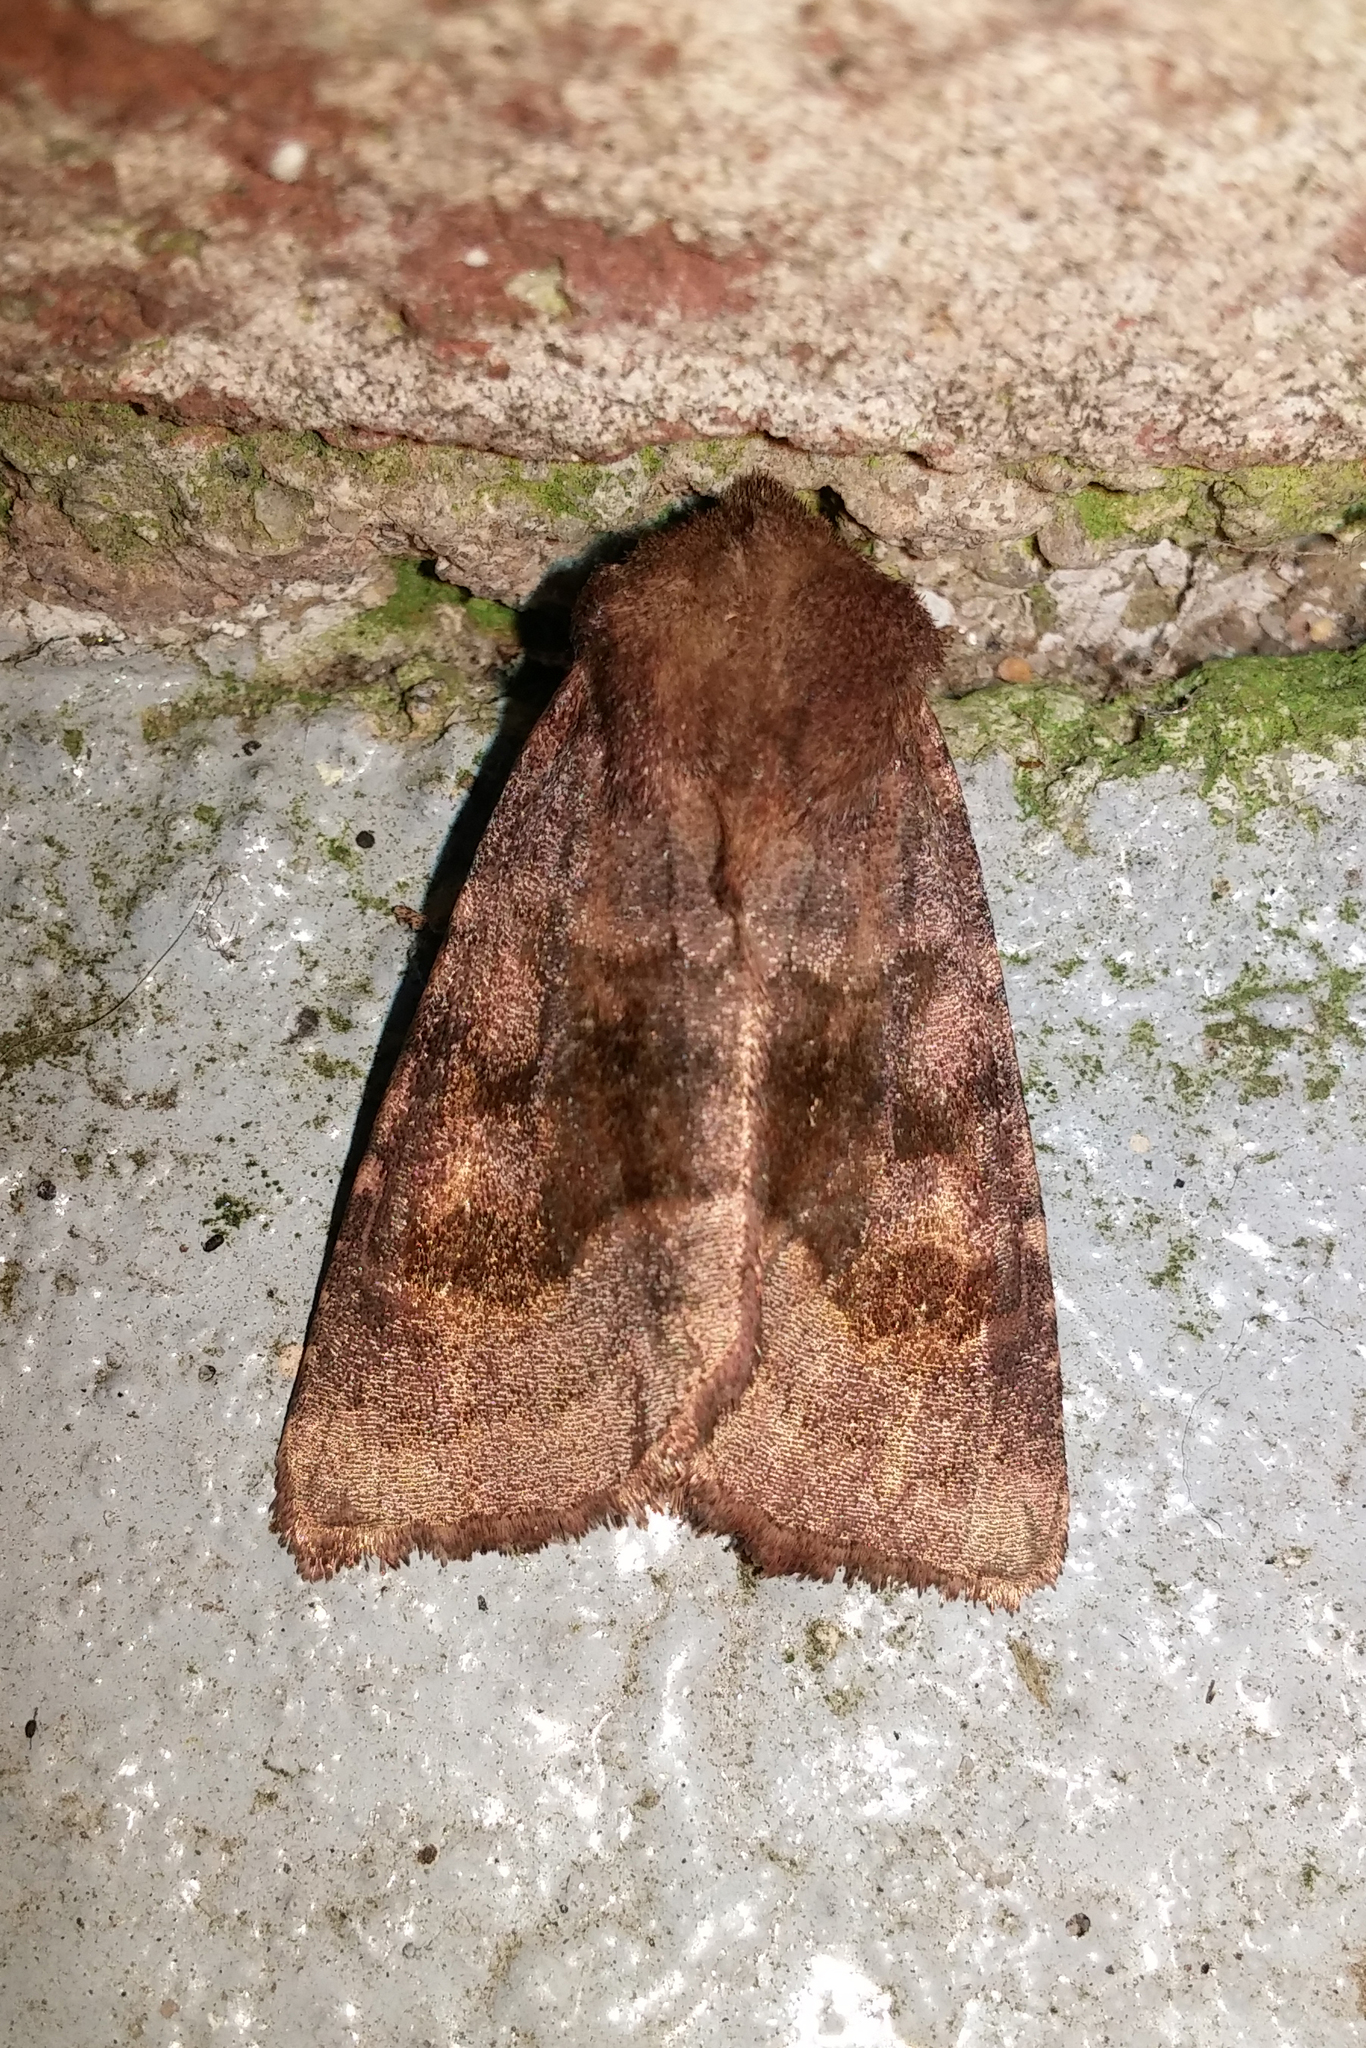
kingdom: Animalia
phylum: Arthropoda
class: Insecta
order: Lepidoptera
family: Noctuidae
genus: Nephelodes
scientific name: Nephelodes minians
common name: Bronzed cutworm
